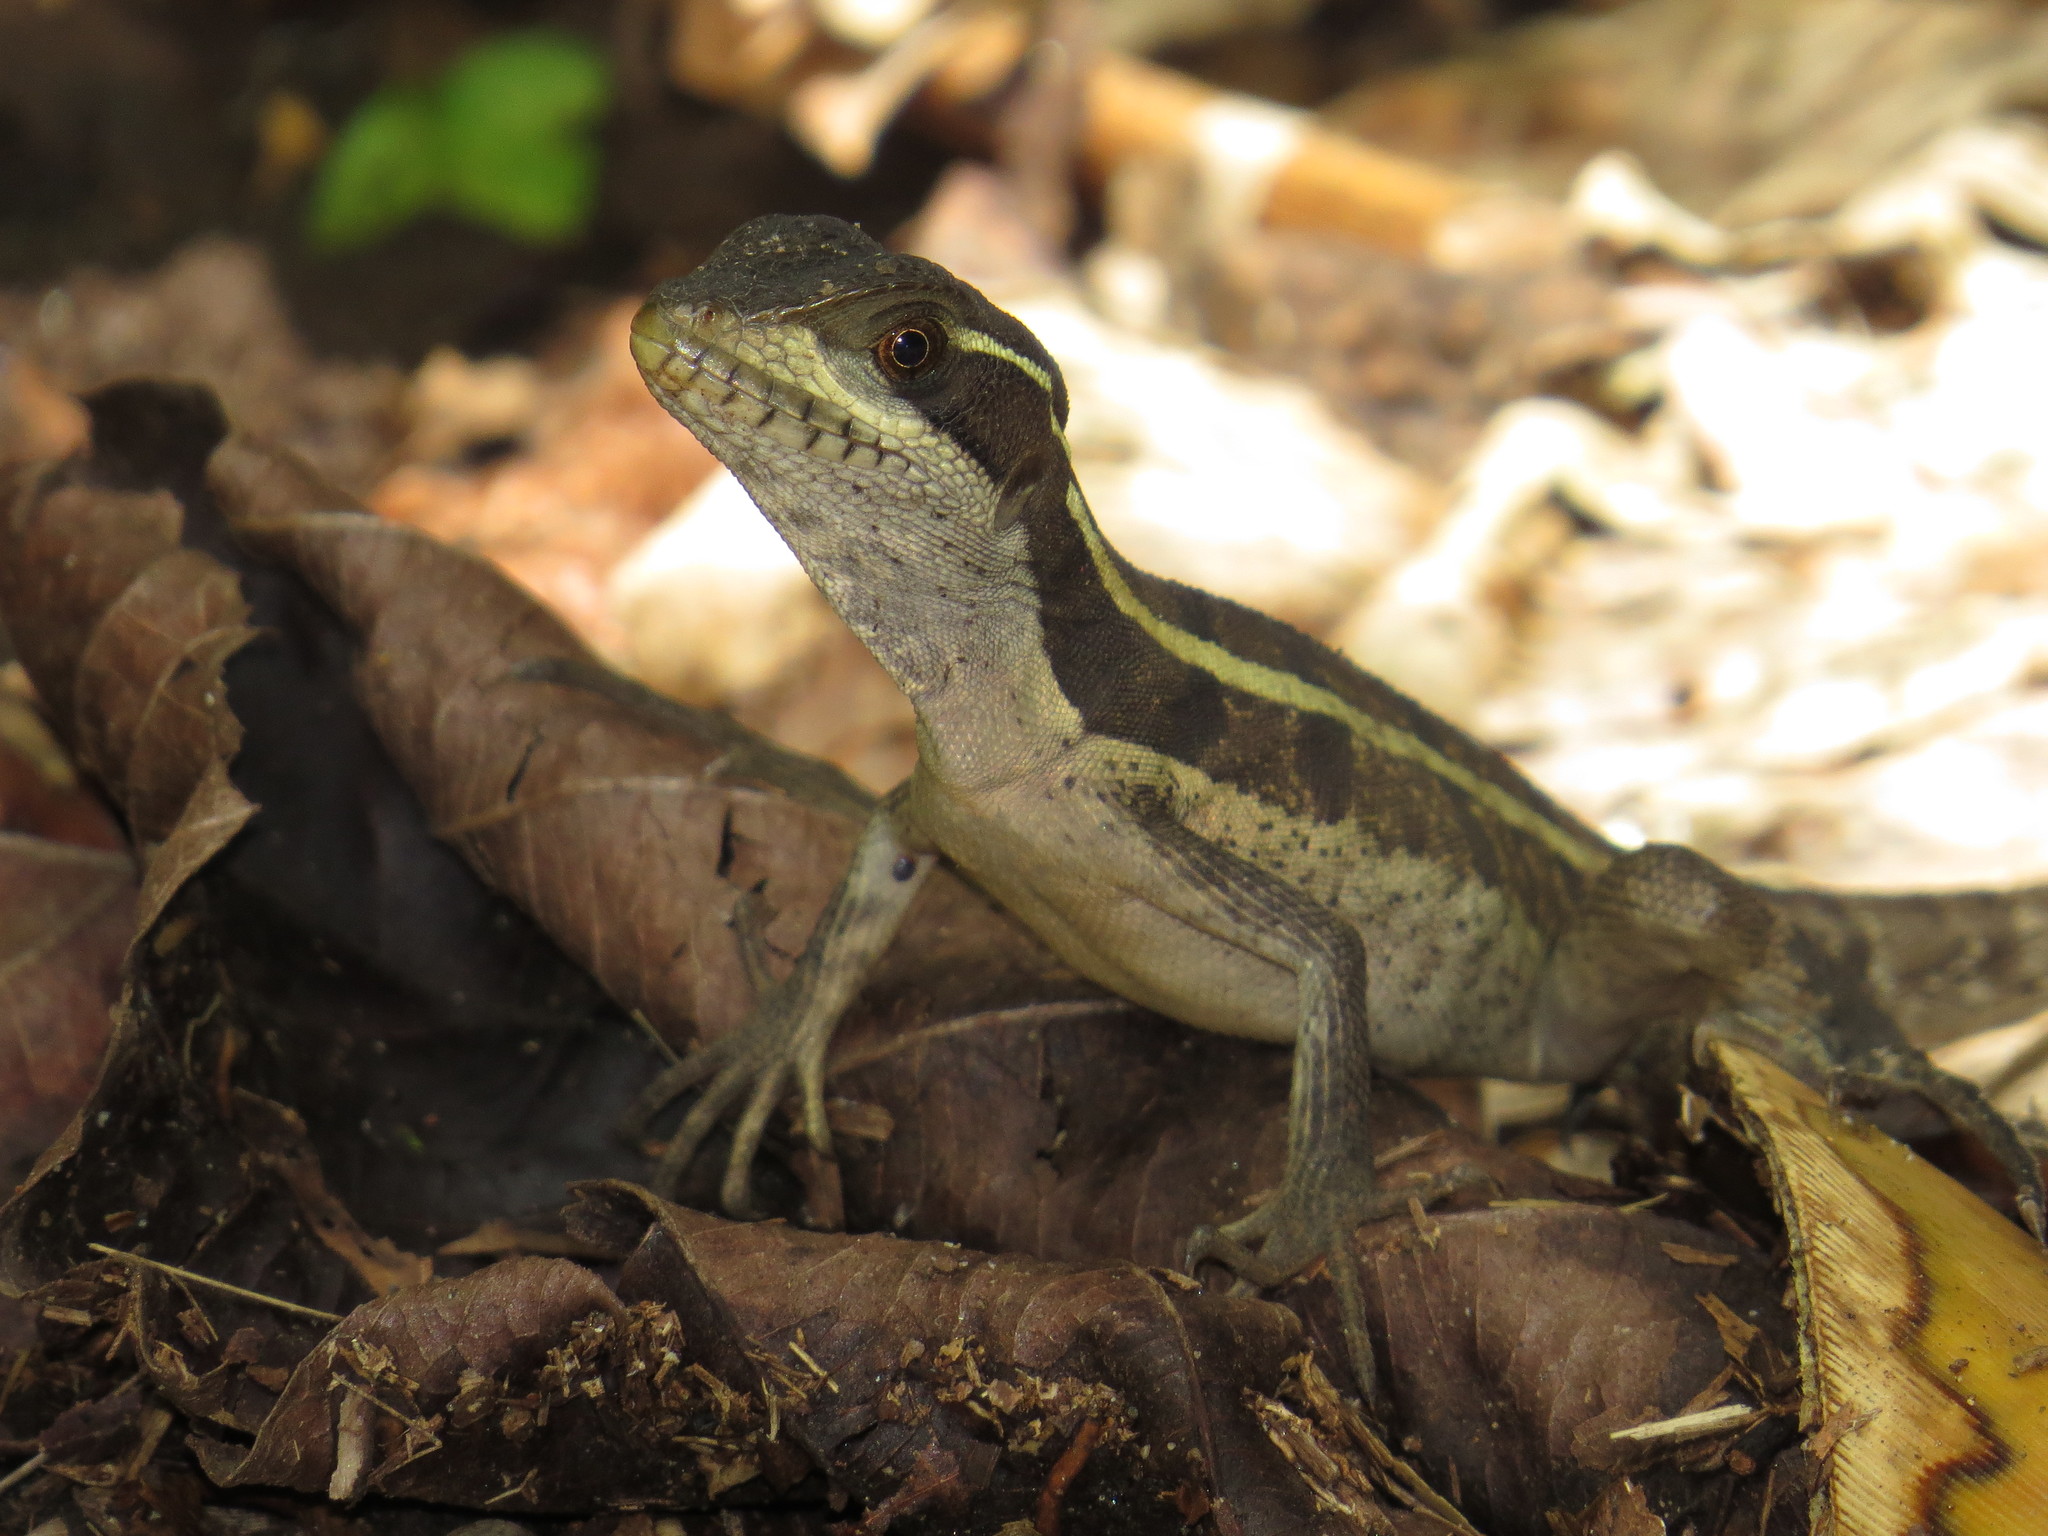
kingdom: Animalia
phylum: Chordata
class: Squamata
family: Corytophanidae
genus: Basiliscus
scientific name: Basiliscus vittatus
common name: Brown basilisk
